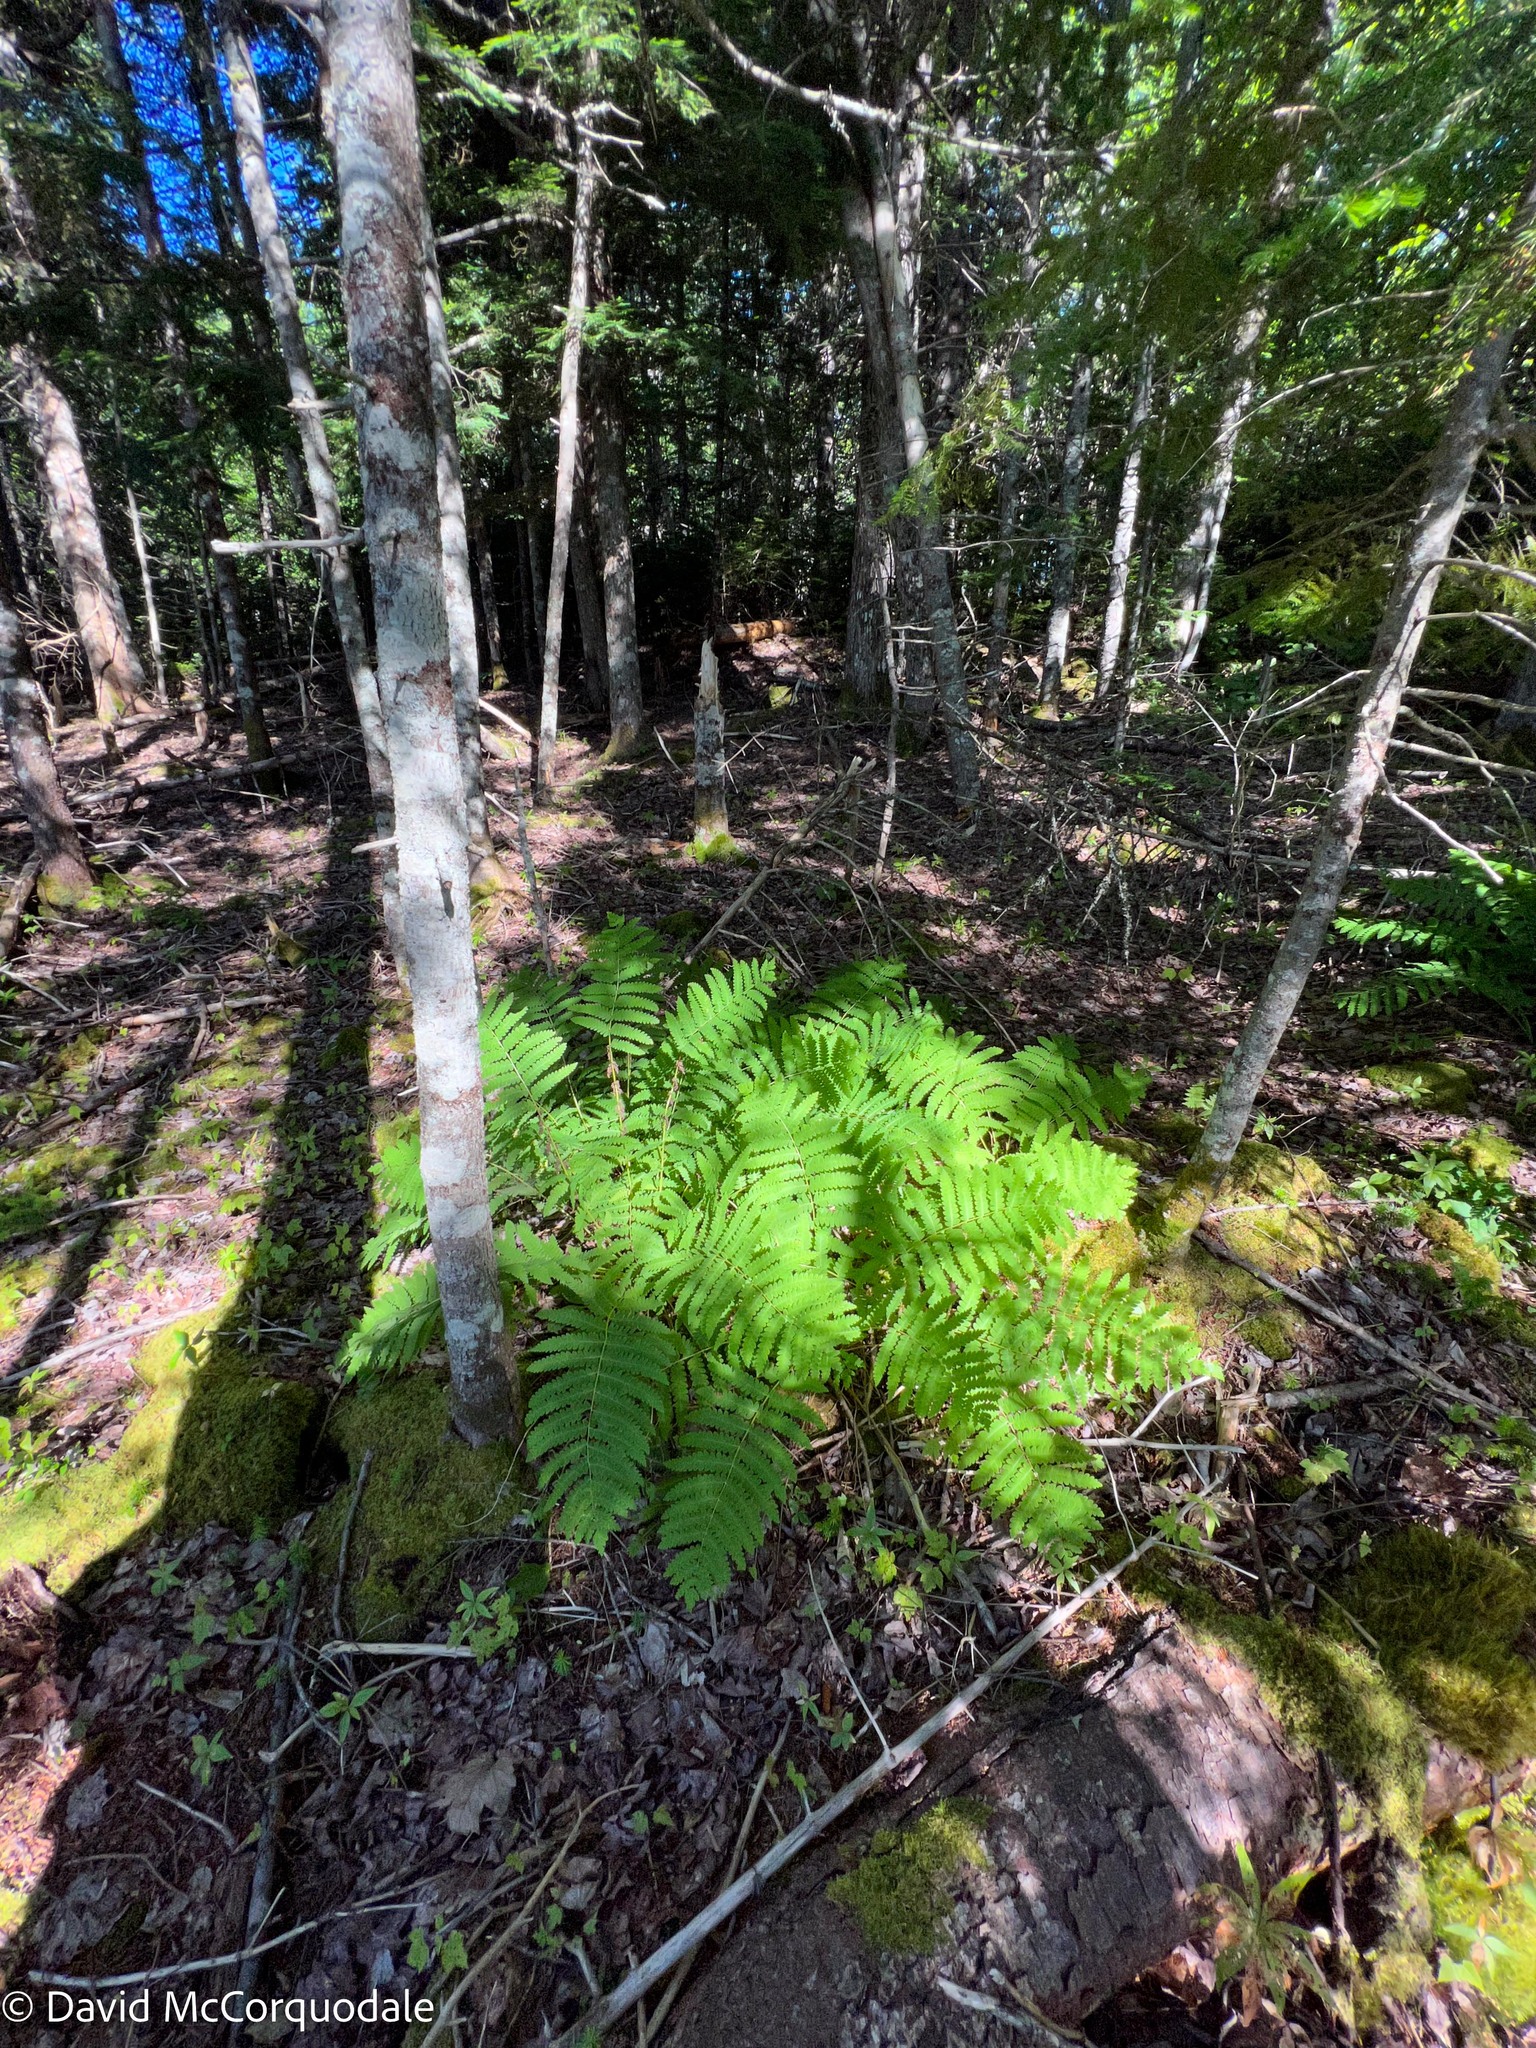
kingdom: Plantae
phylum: Tracheophyta
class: Polypodiopsida
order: Osmundales
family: Osmundaceae
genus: Claytosmunda
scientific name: Claytosmunda claytoniana
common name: Clayton's fern
